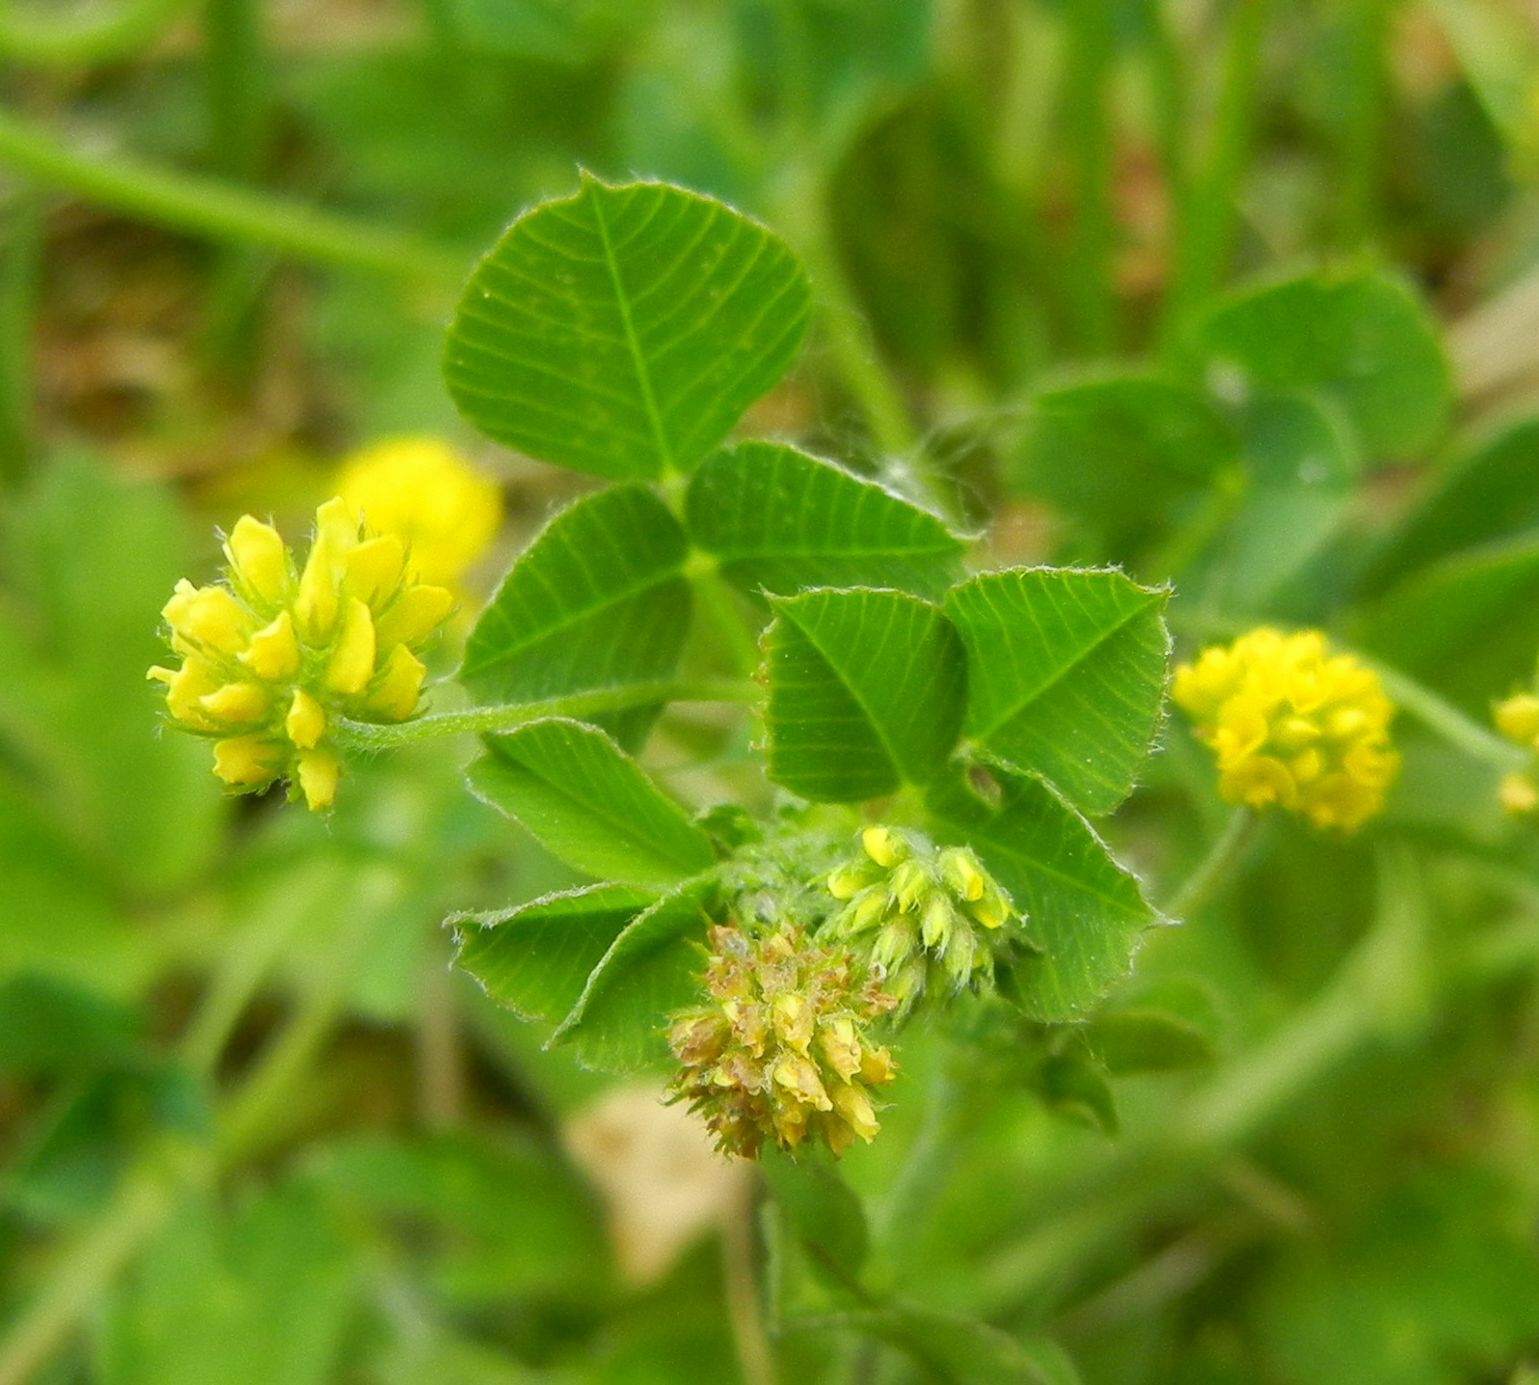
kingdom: Plantae
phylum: Tracheophyta
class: Magnoliopsida
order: Fabales
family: Fabaceae
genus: Medicago
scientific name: Medicago lupulina
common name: Black medick
